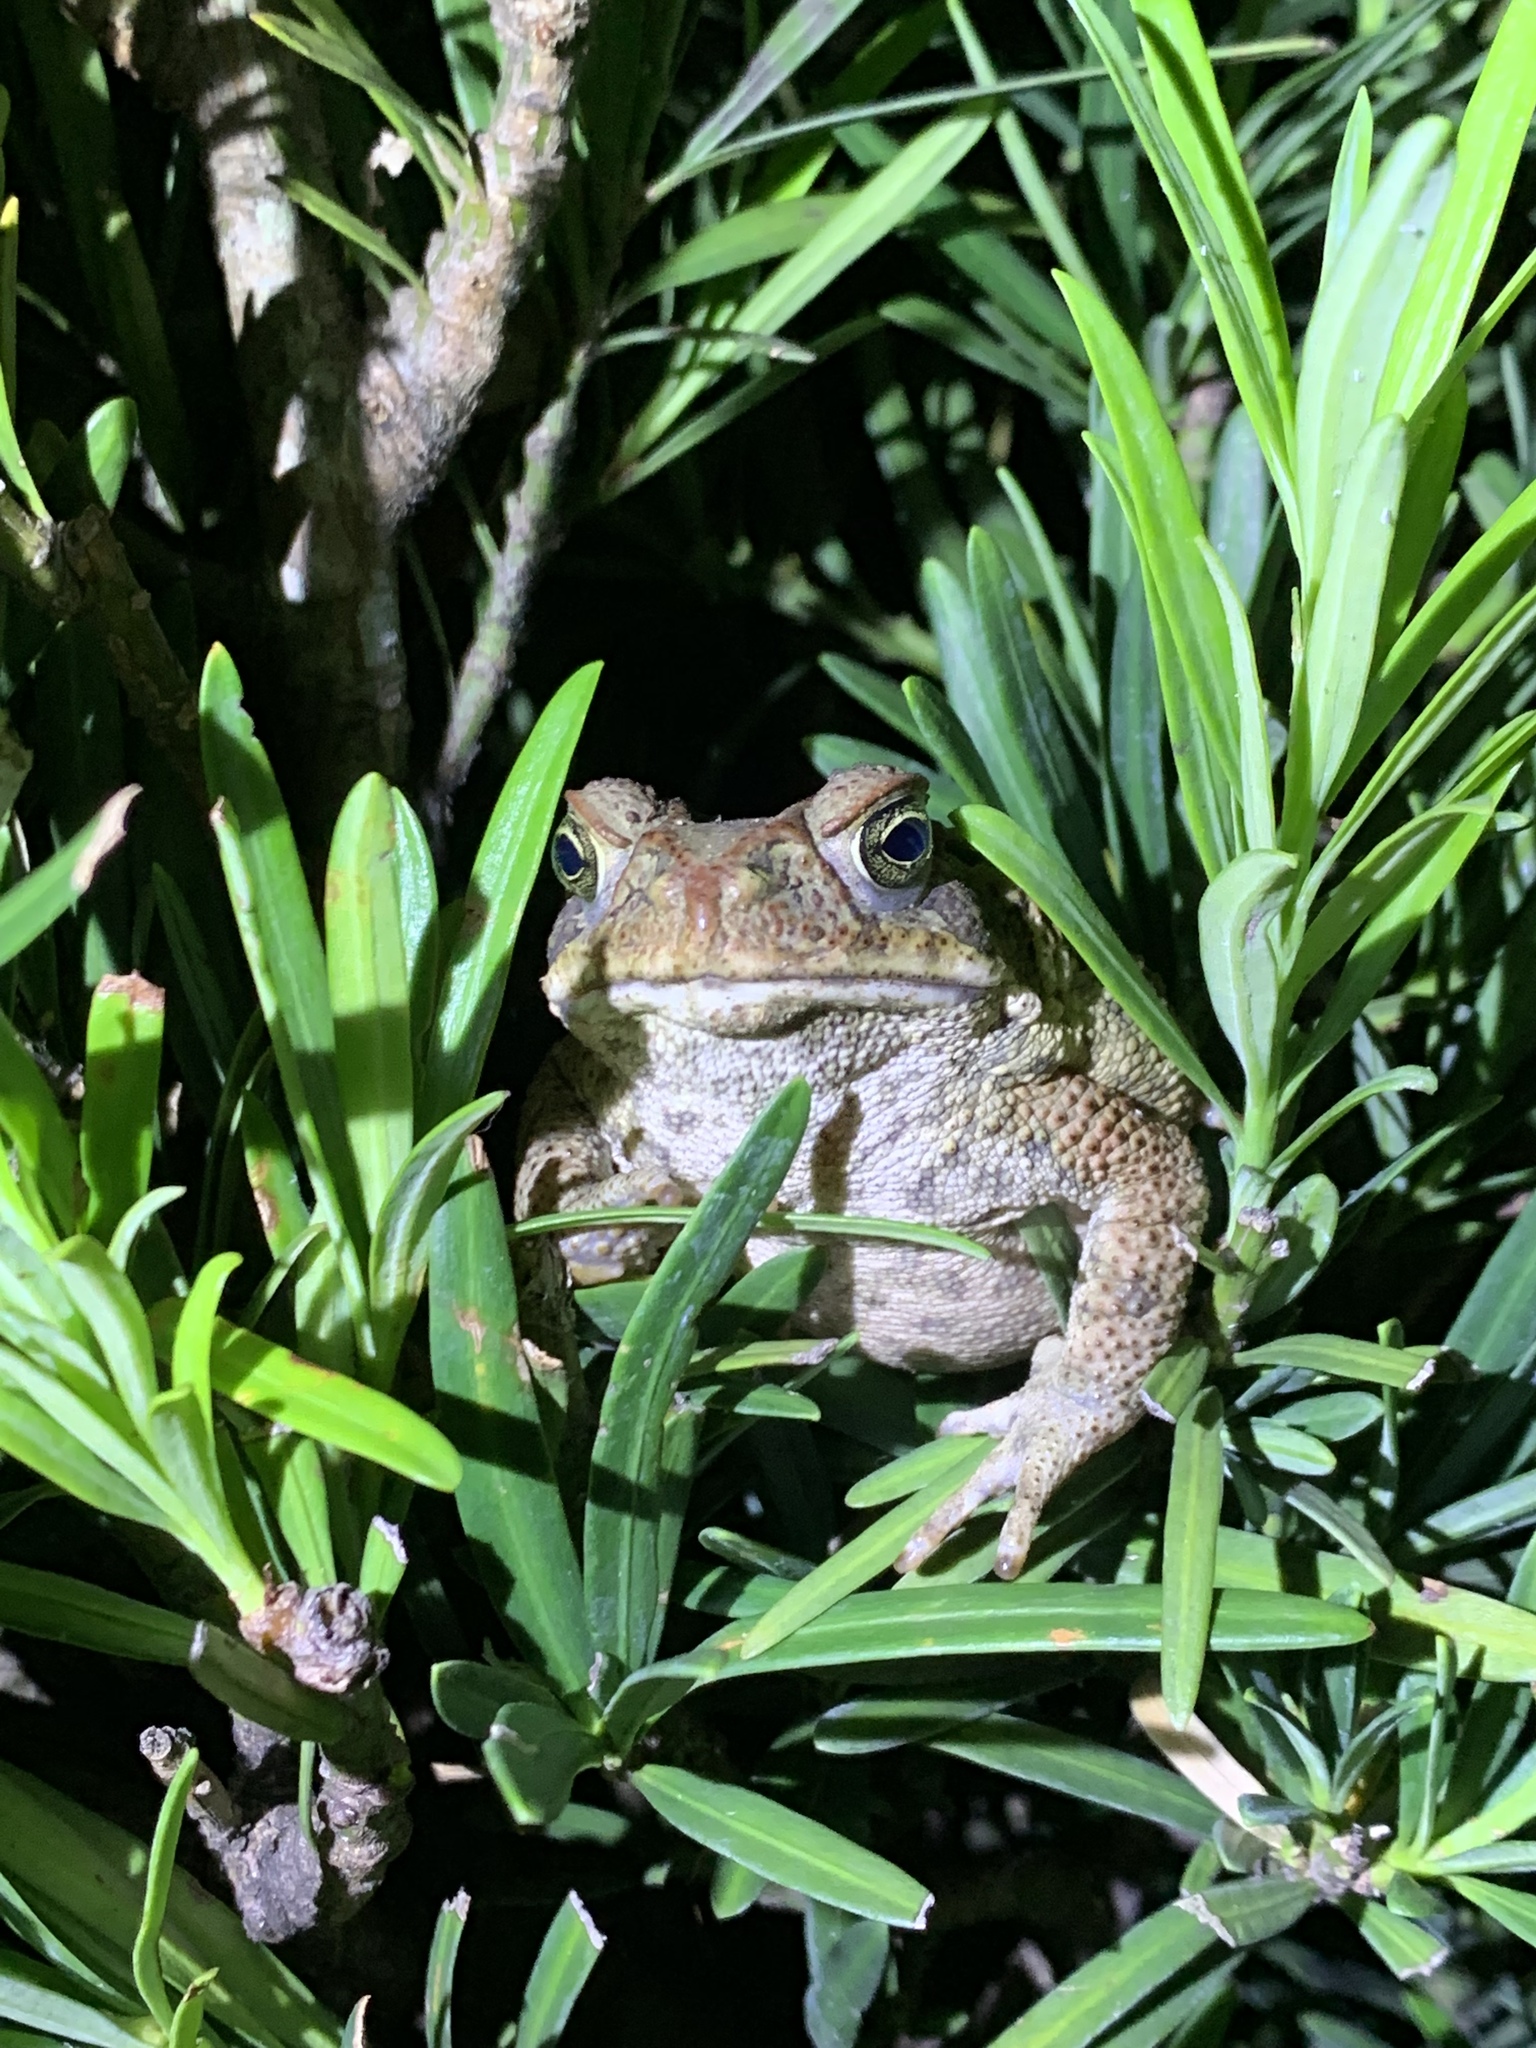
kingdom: Animalia
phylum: Chordata
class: Amphibia
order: Anura
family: Bufonidae
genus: Rhinella
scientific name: Rhinella marina
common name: Cane toad
